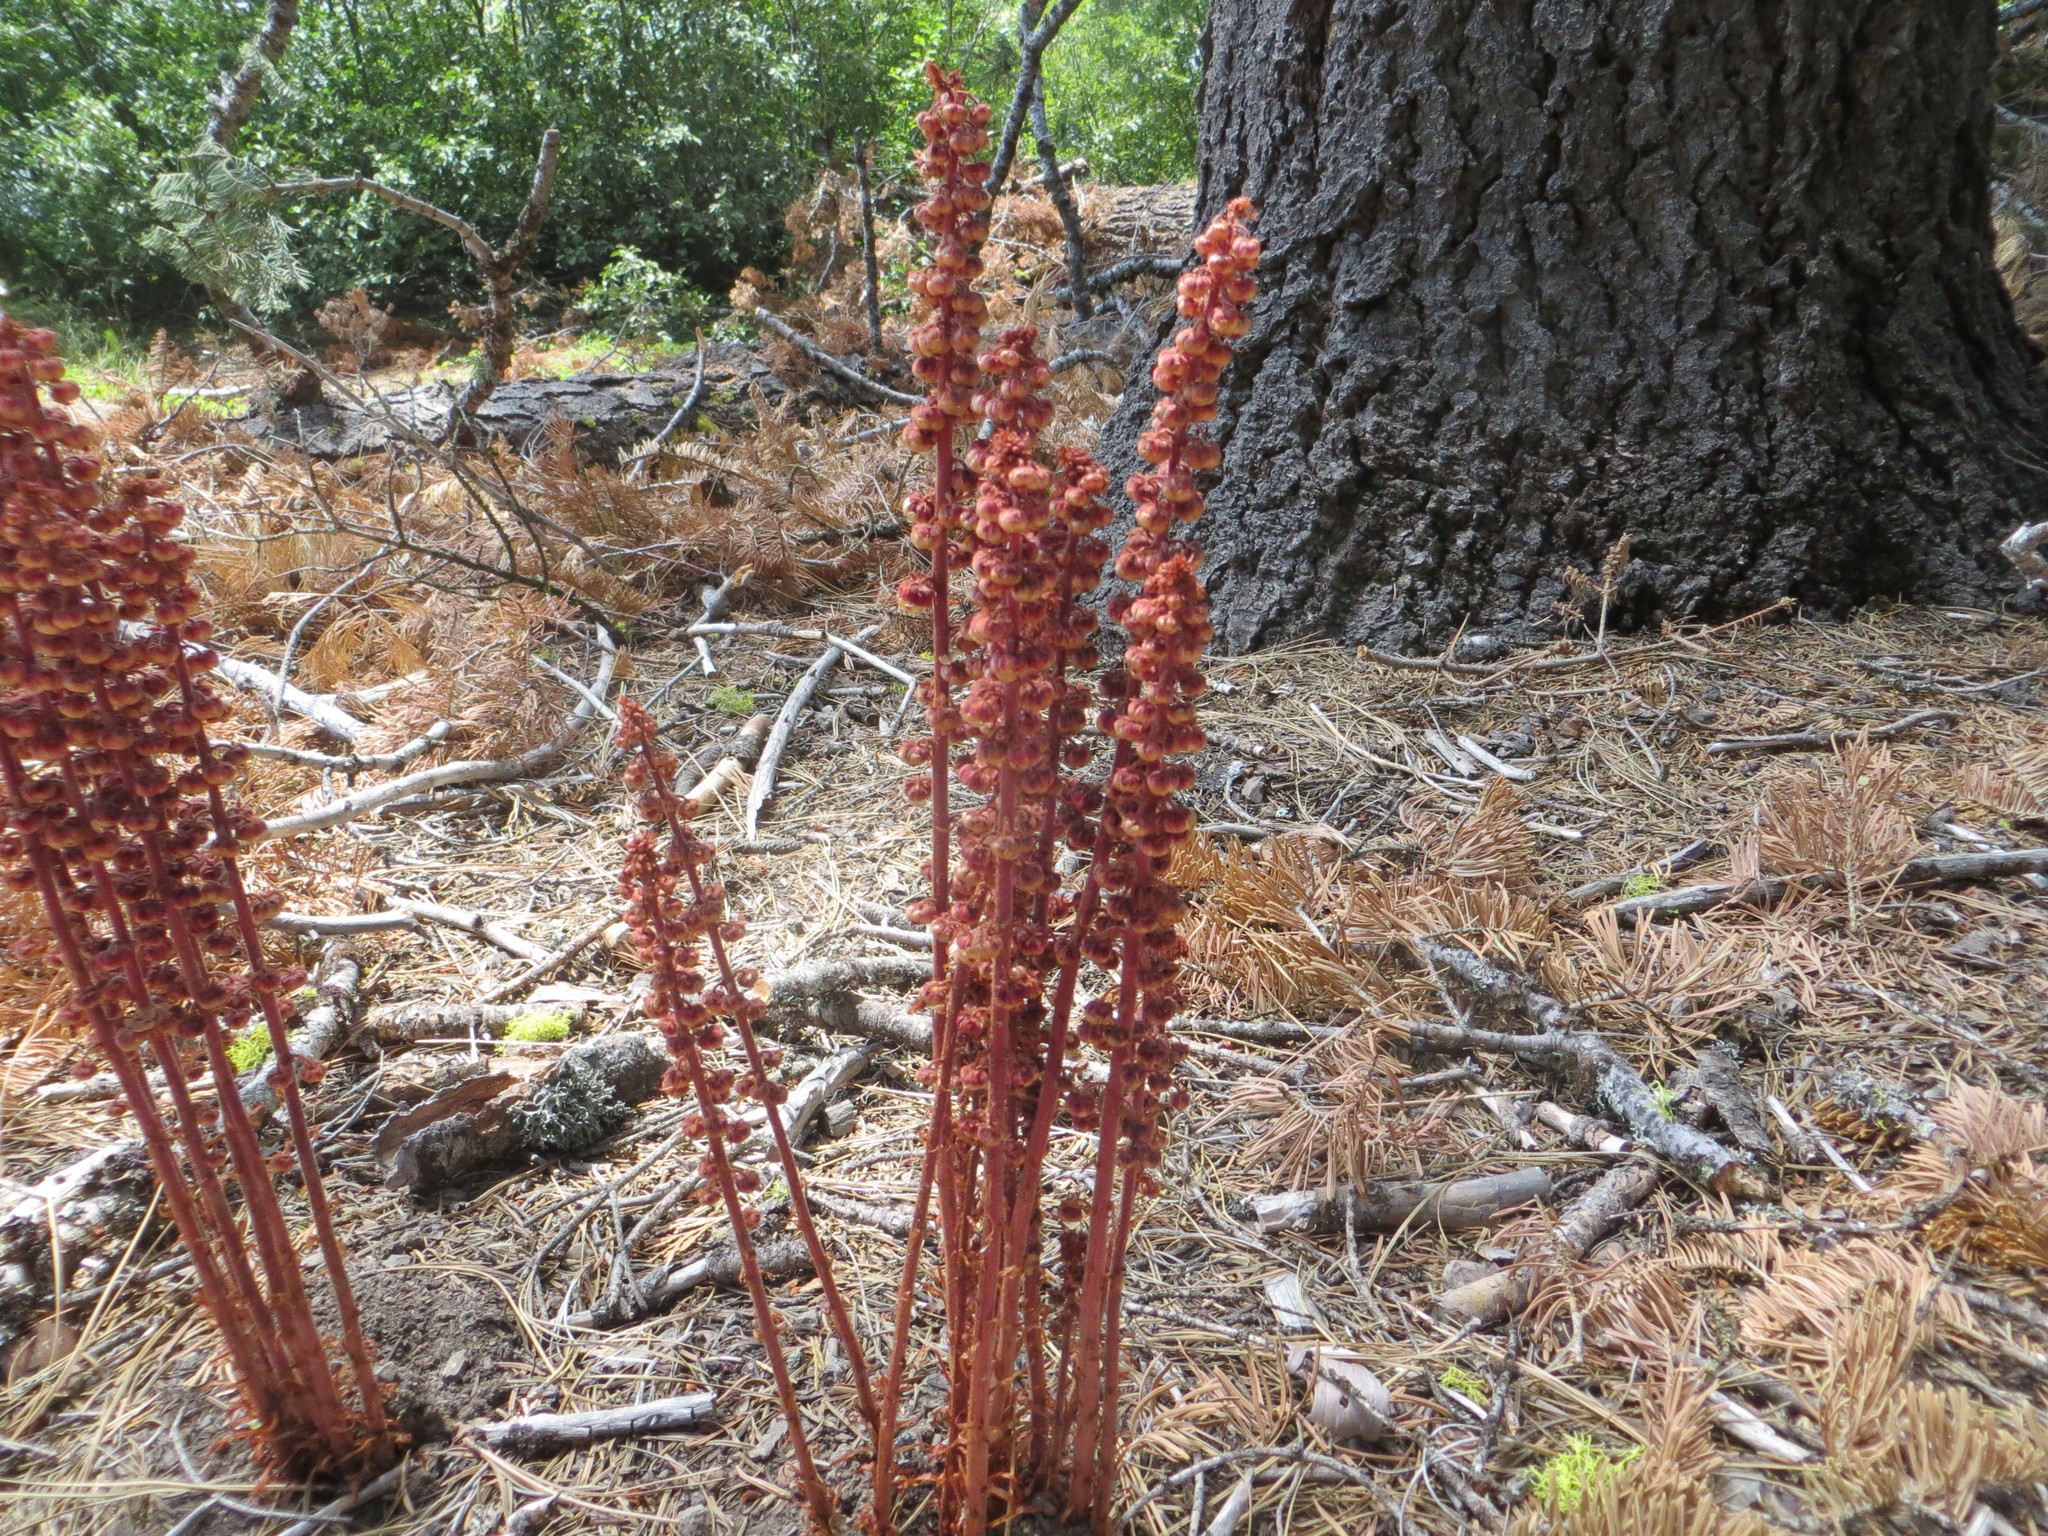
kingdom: Plantae
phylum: Tracheophyta
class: Magnoliopsida
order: Ericales
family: Ericaceae
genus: Pterospora
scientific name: Pterospora andromedea
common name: Giant bird's-nest
